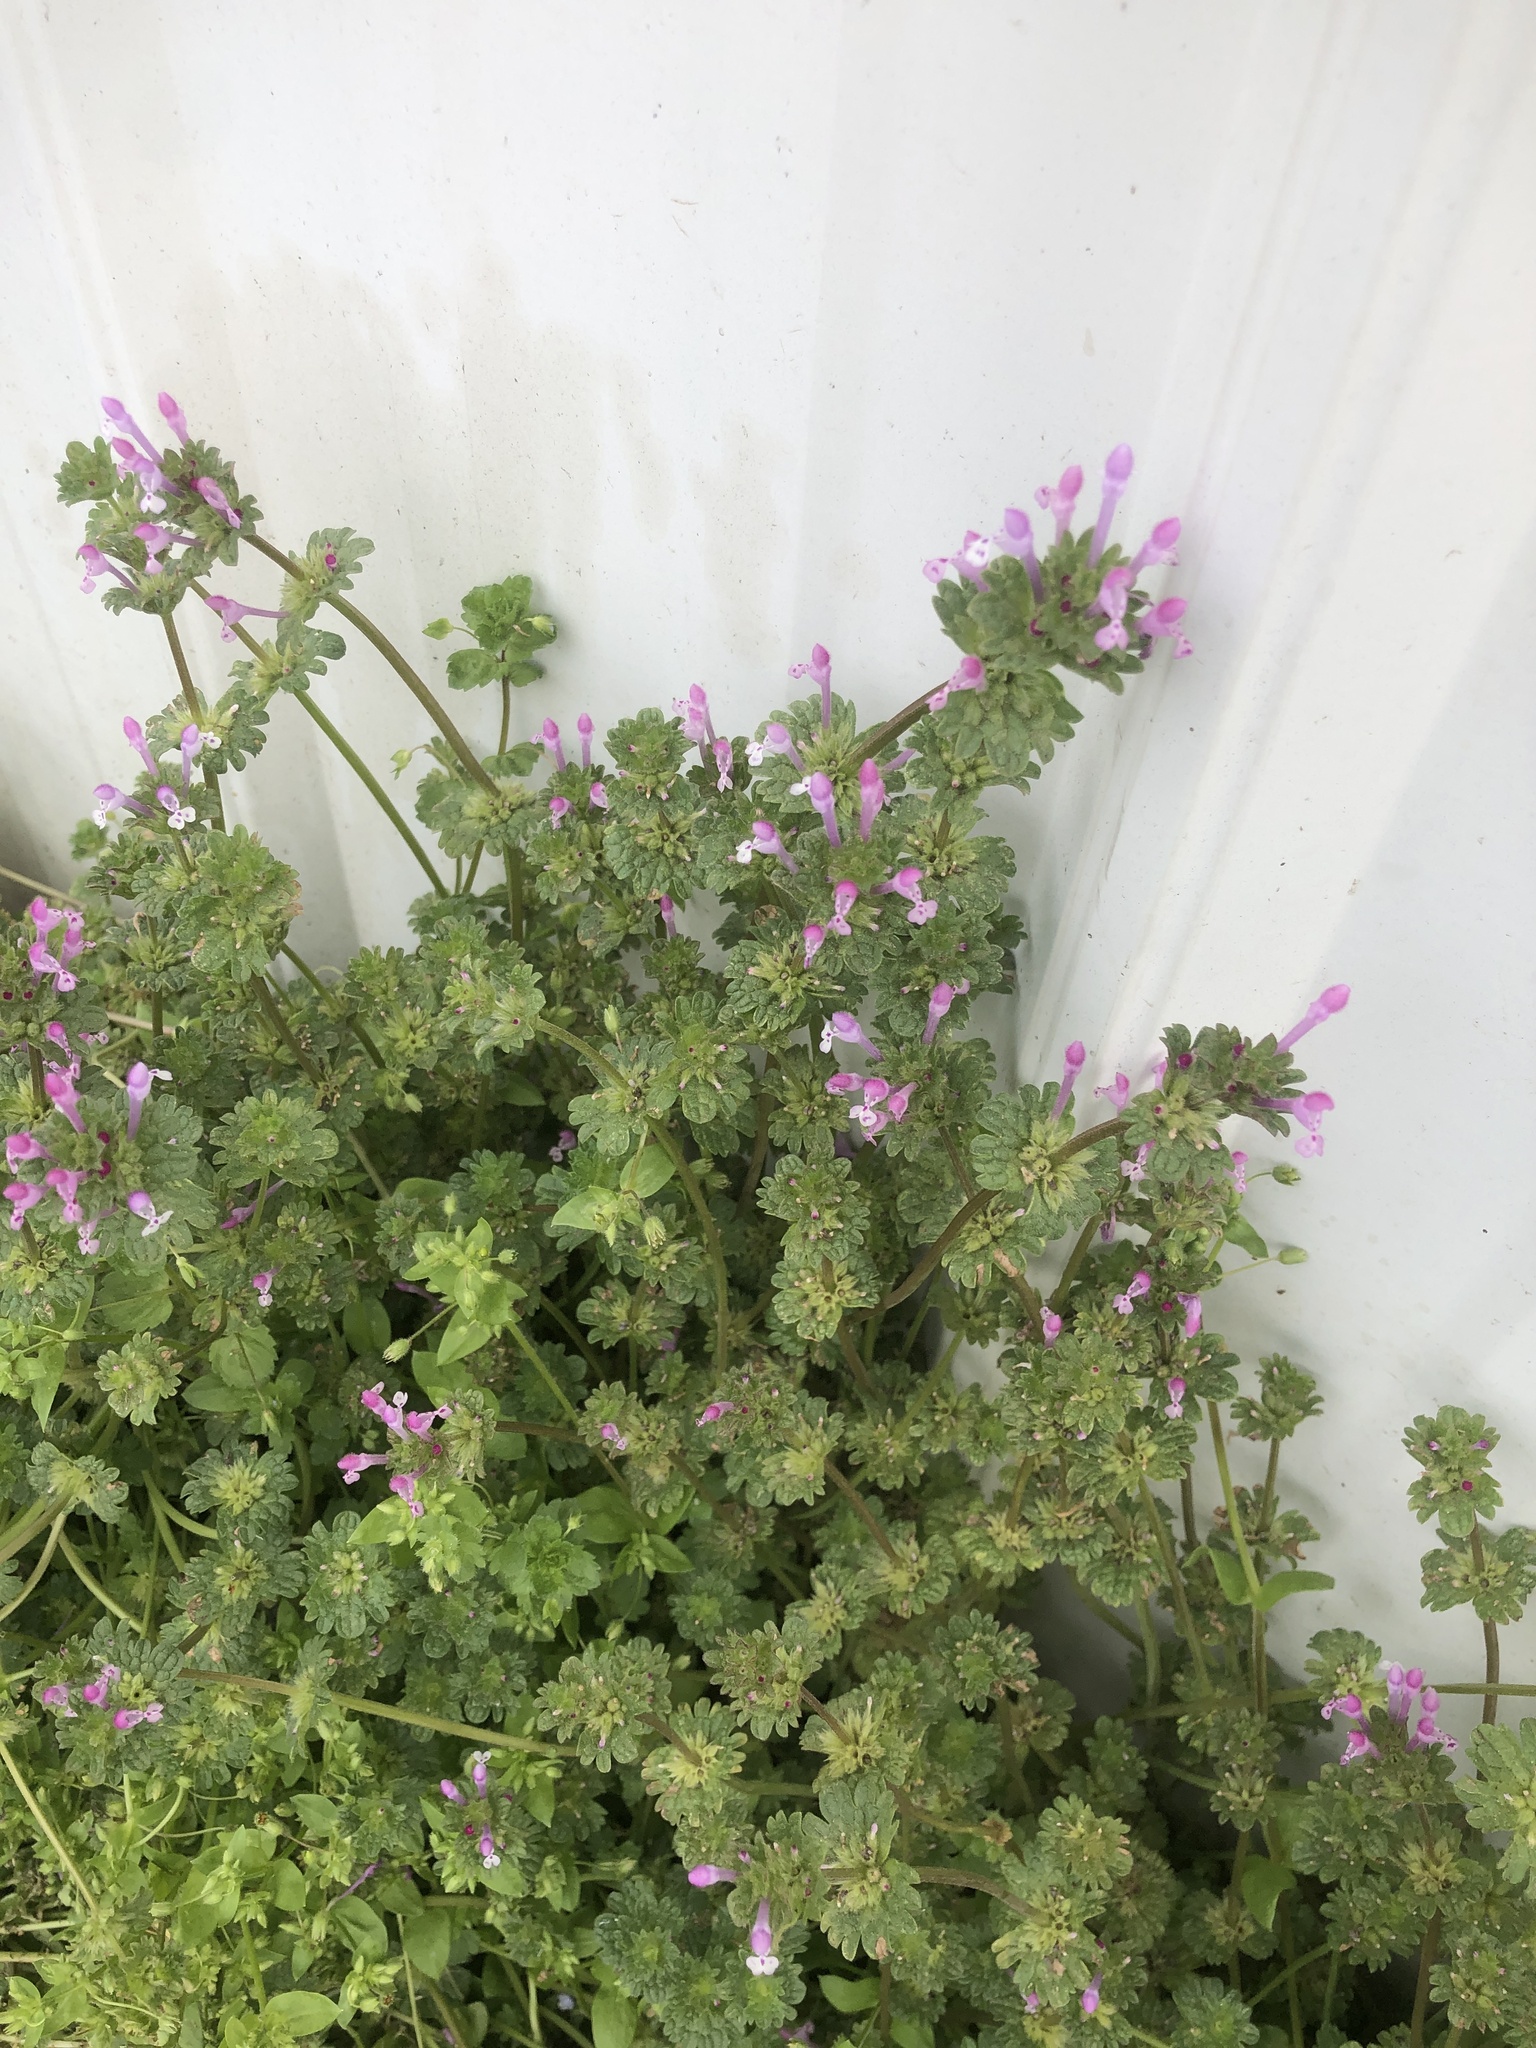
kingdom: Plantae
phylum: Tracheophyta
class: Magnoliopsida
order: Lamiales
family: Lamiaceae
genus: Lamium
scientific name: Lamium amplexicaule
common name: Henbit dead-nettle
